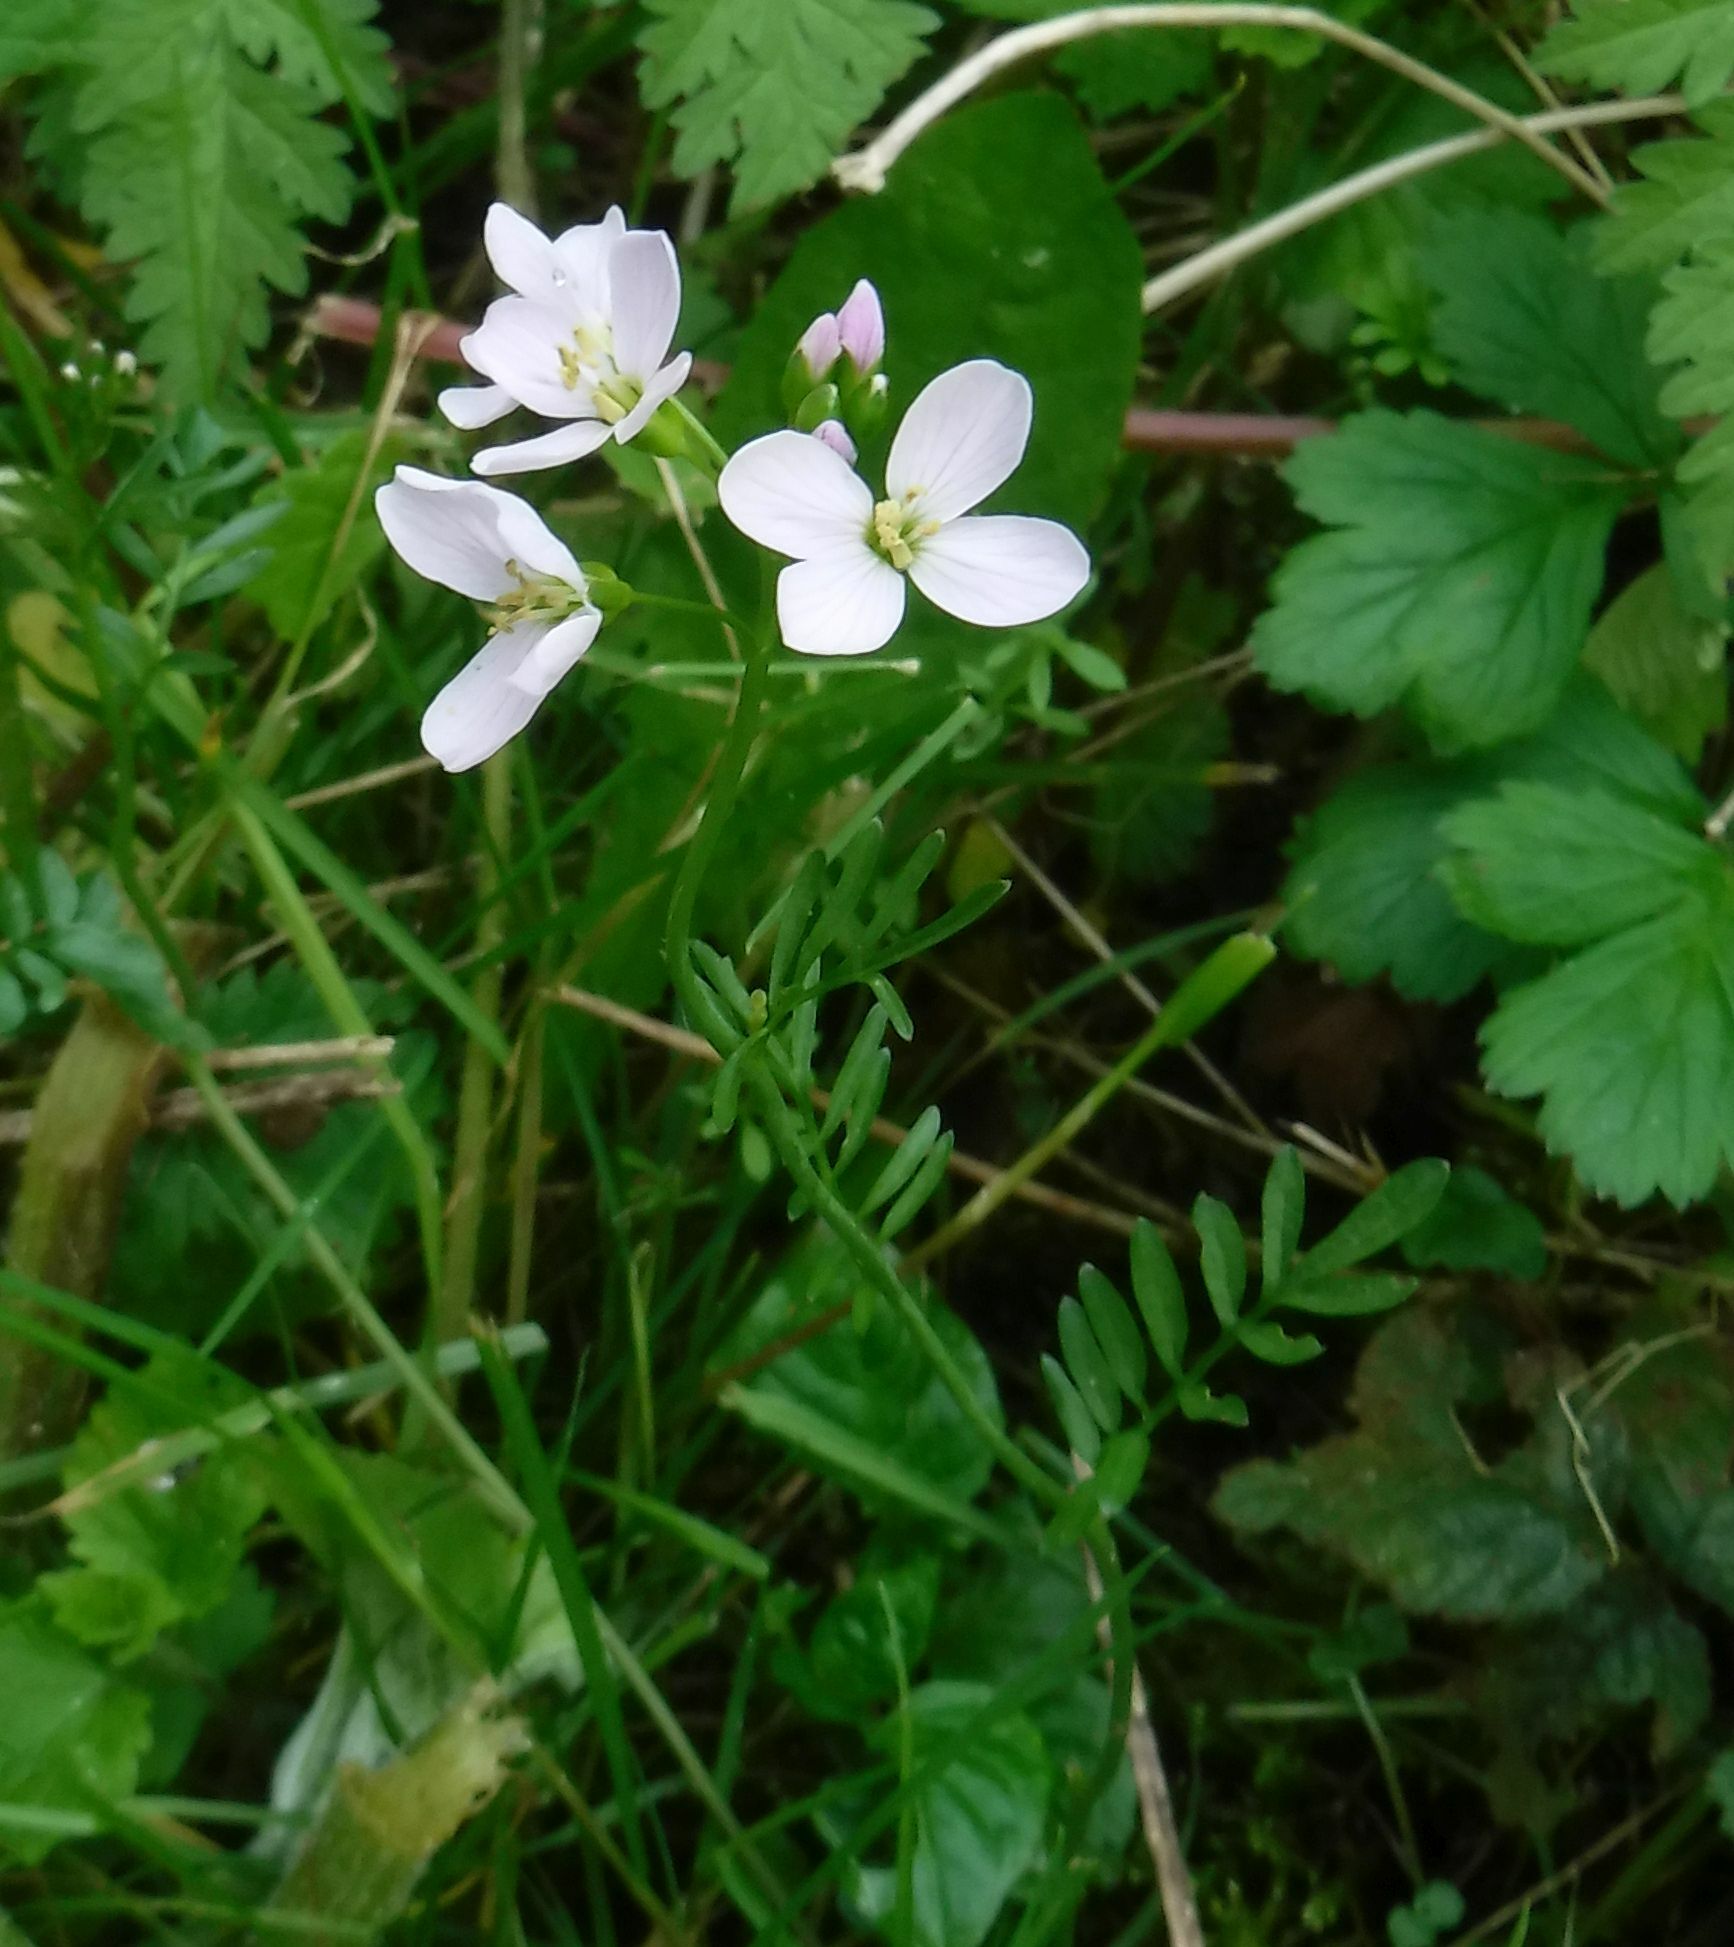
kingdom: Plantae
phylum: Tracheophyta
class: Magnoliopsida
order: Brassicales
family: Brassicaceae
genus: Cardamine
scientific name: Cardamine pratensis
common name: Cuckoo flower
